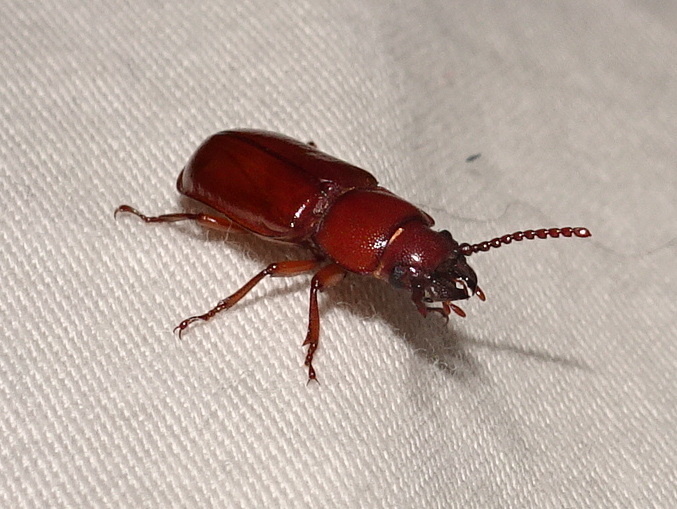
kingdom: Animalia
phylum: Arthropoda
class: Insecta
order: Coleoptera
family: Cerambycidae
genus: Neandra
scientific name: Neandra brunnea
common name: Pole borer
